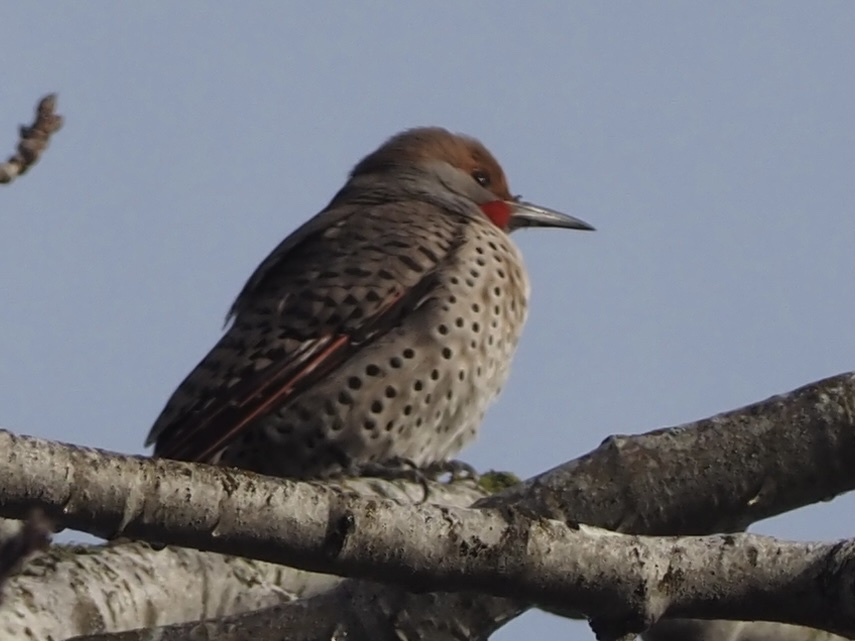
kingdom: Animalia
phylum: Chordata
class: Aves
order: Piciformes
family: Picidae
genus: Colaptes
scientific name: Colaptes auratus
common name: Northern flicker
